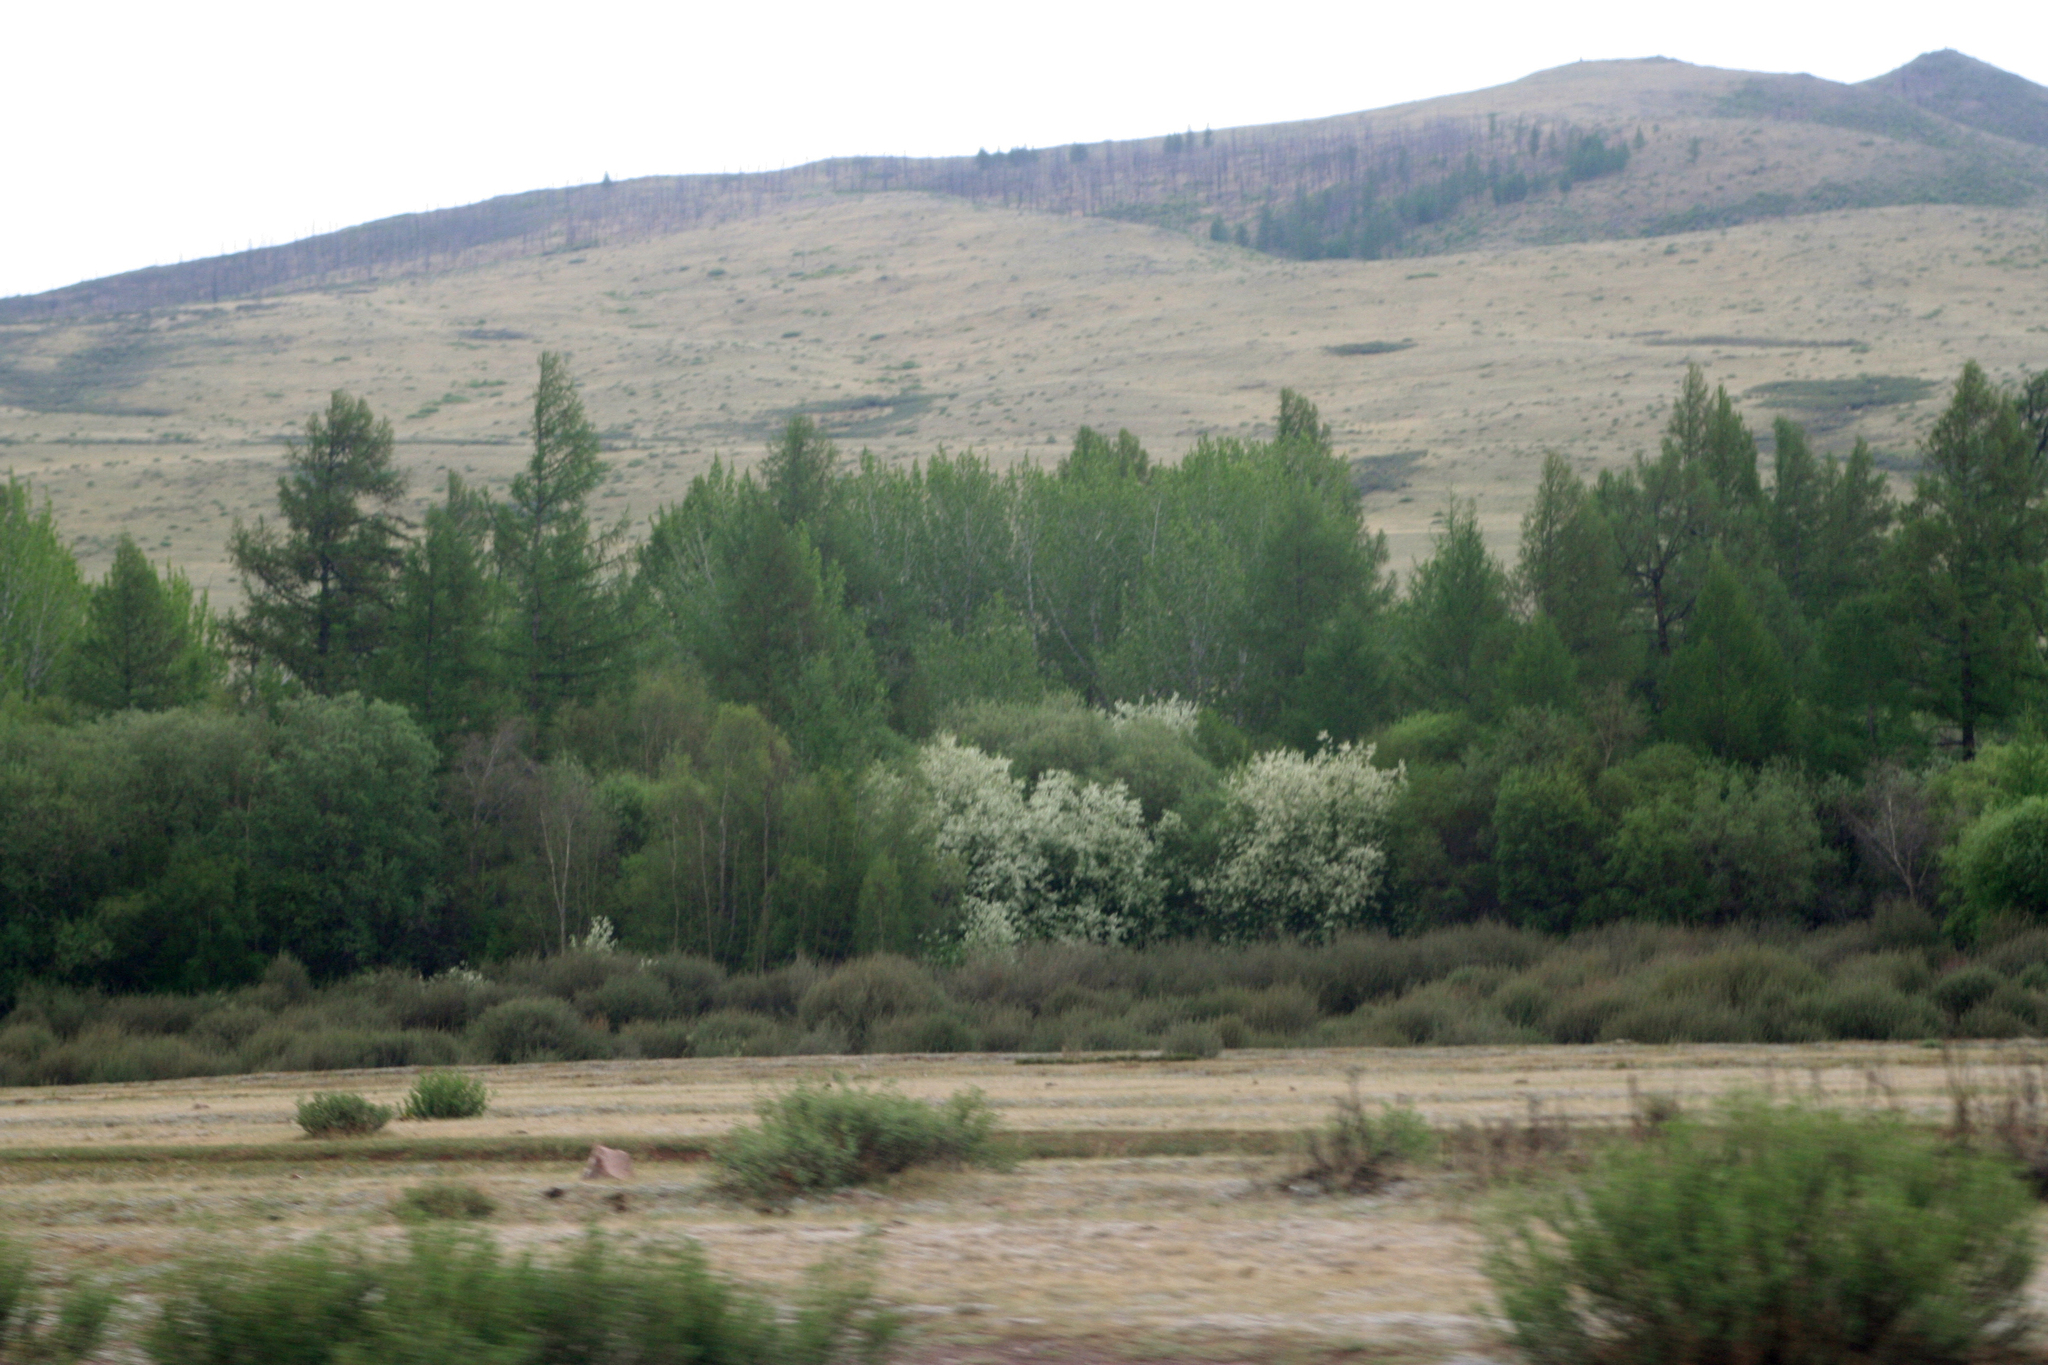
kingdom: Plantae
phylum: Tracheophyta
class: Magnoliopsida
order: Rosales
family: Rosaceae
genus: Prunus
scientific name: Prunus padus
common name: Bird cherry
